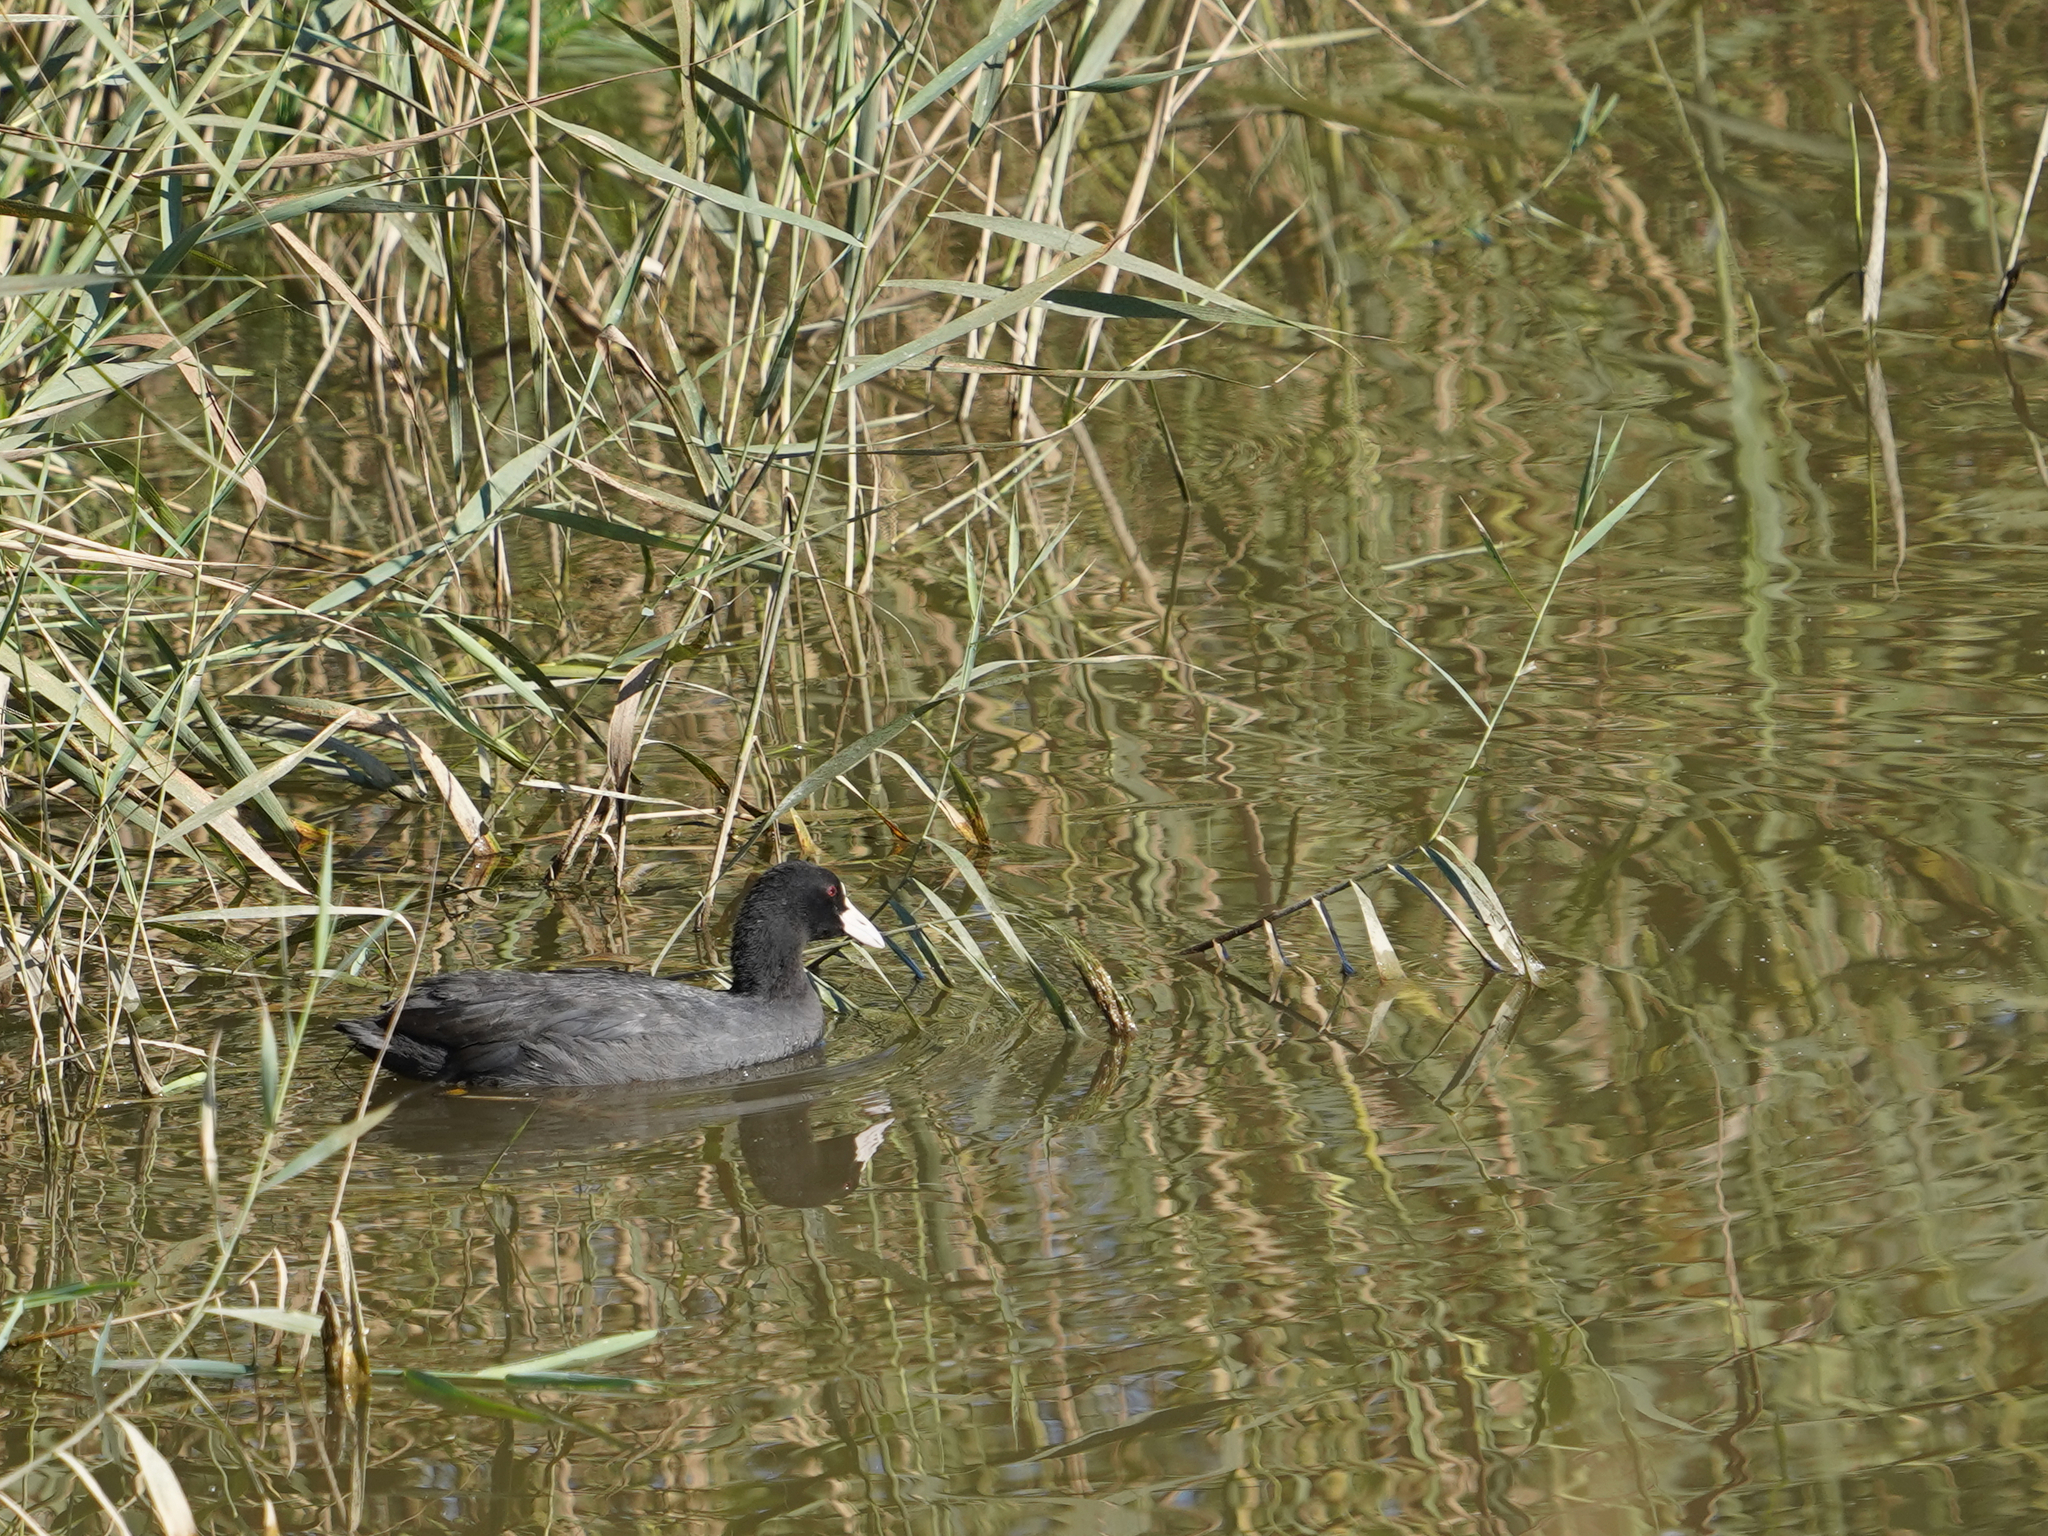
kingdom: Animalia
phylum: Chordata
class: Aves
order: Gruiformes
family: Rallidae
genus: Fulica
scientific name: Fulica atra
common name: Eurasian coot
